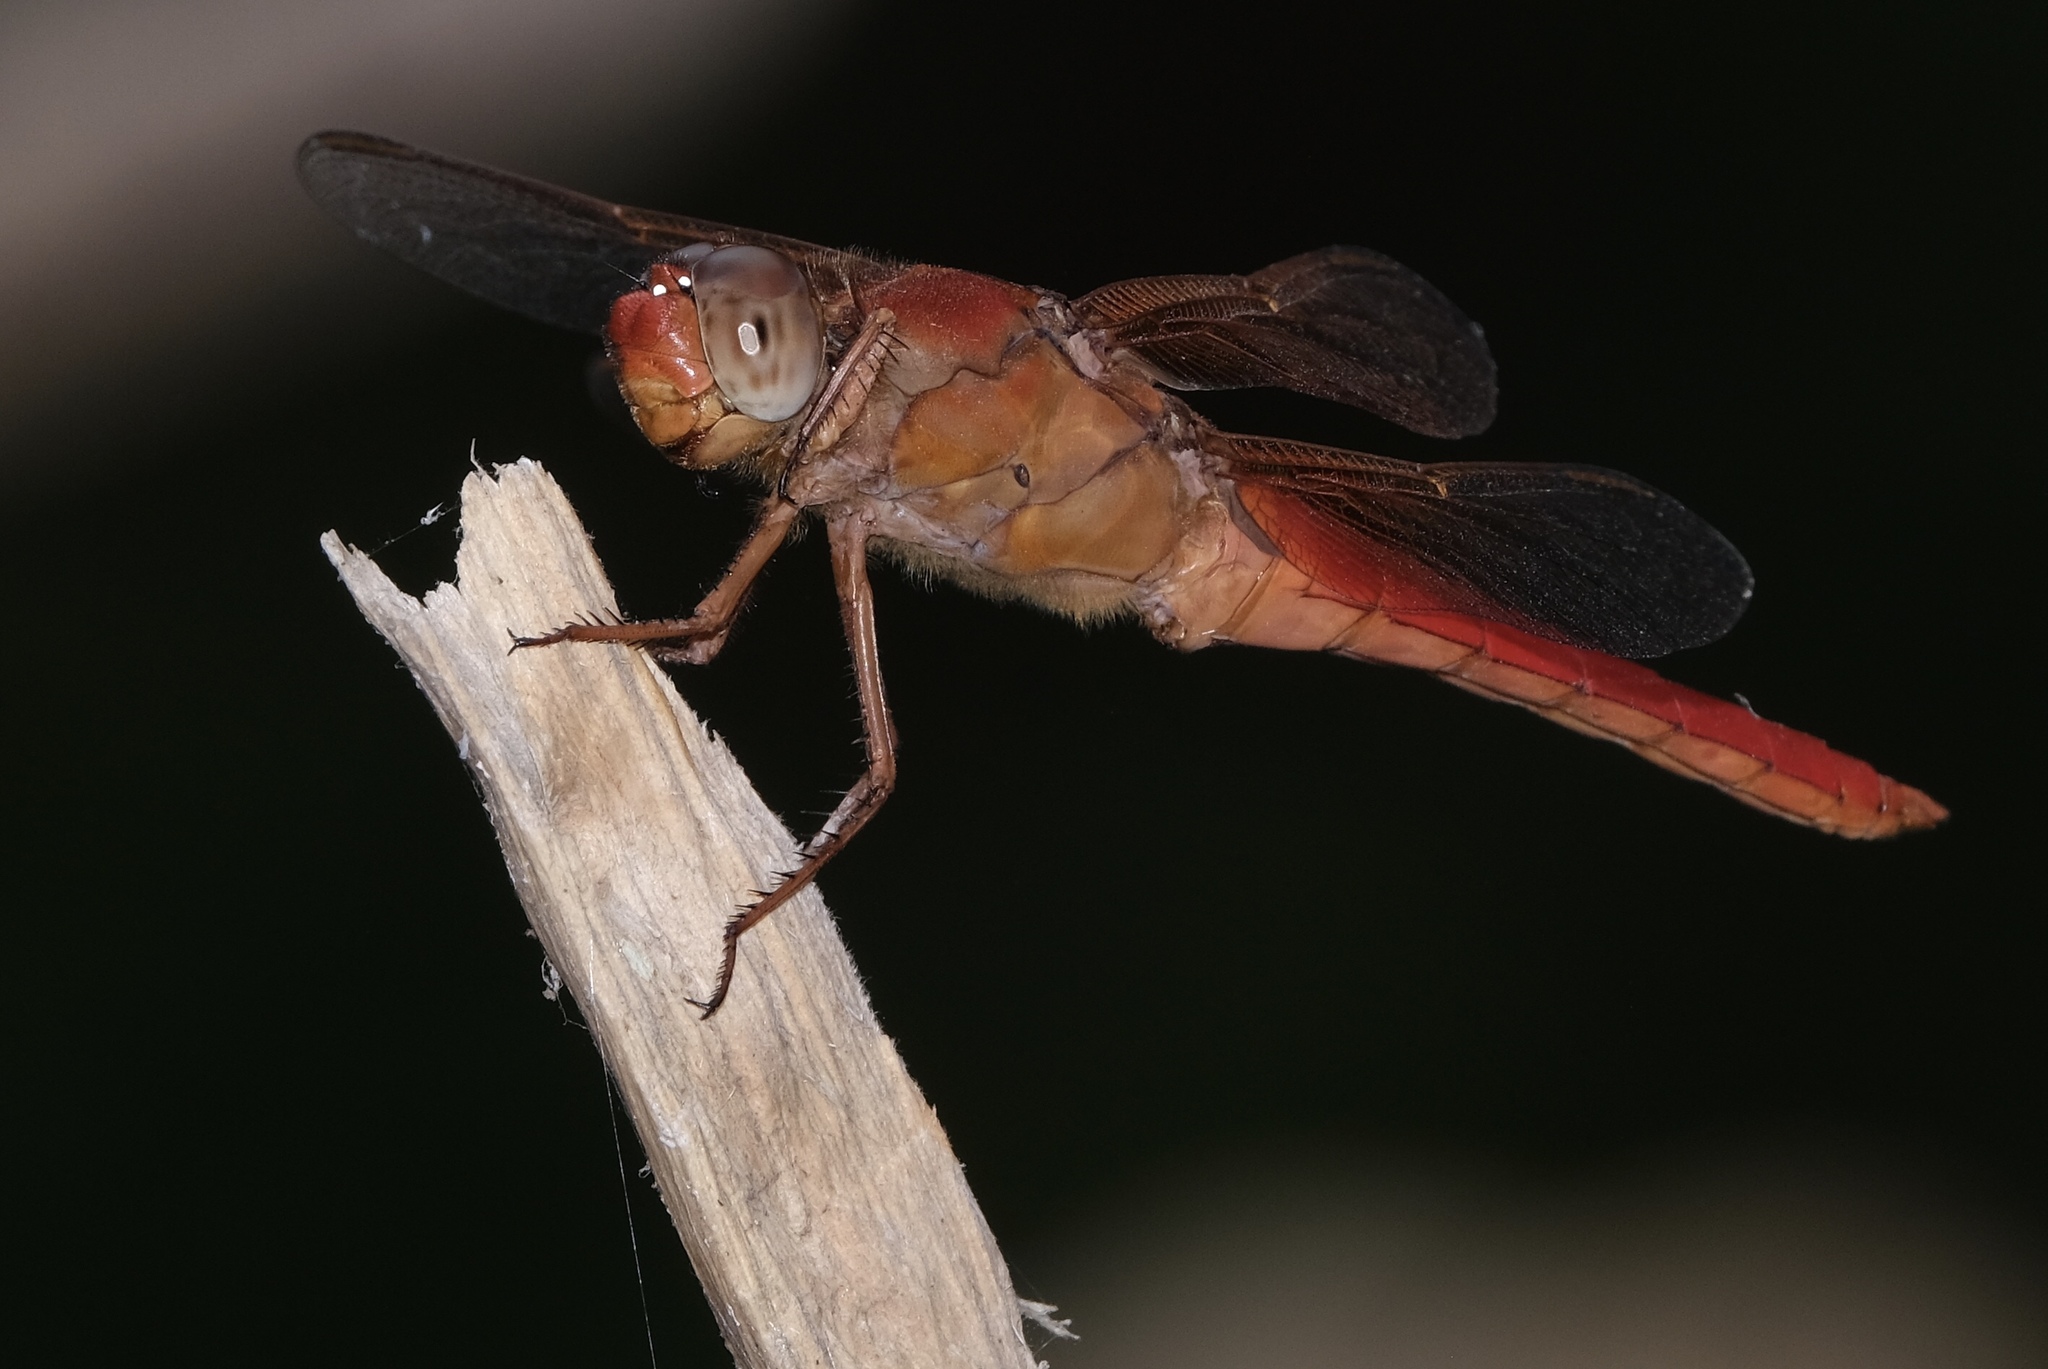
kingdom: Animalia
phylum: Arthropoda
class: Insecta
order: Odonata
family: Libellulidae
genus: Libellula
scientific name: Libellula croceipennis
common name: Neon skimmer
